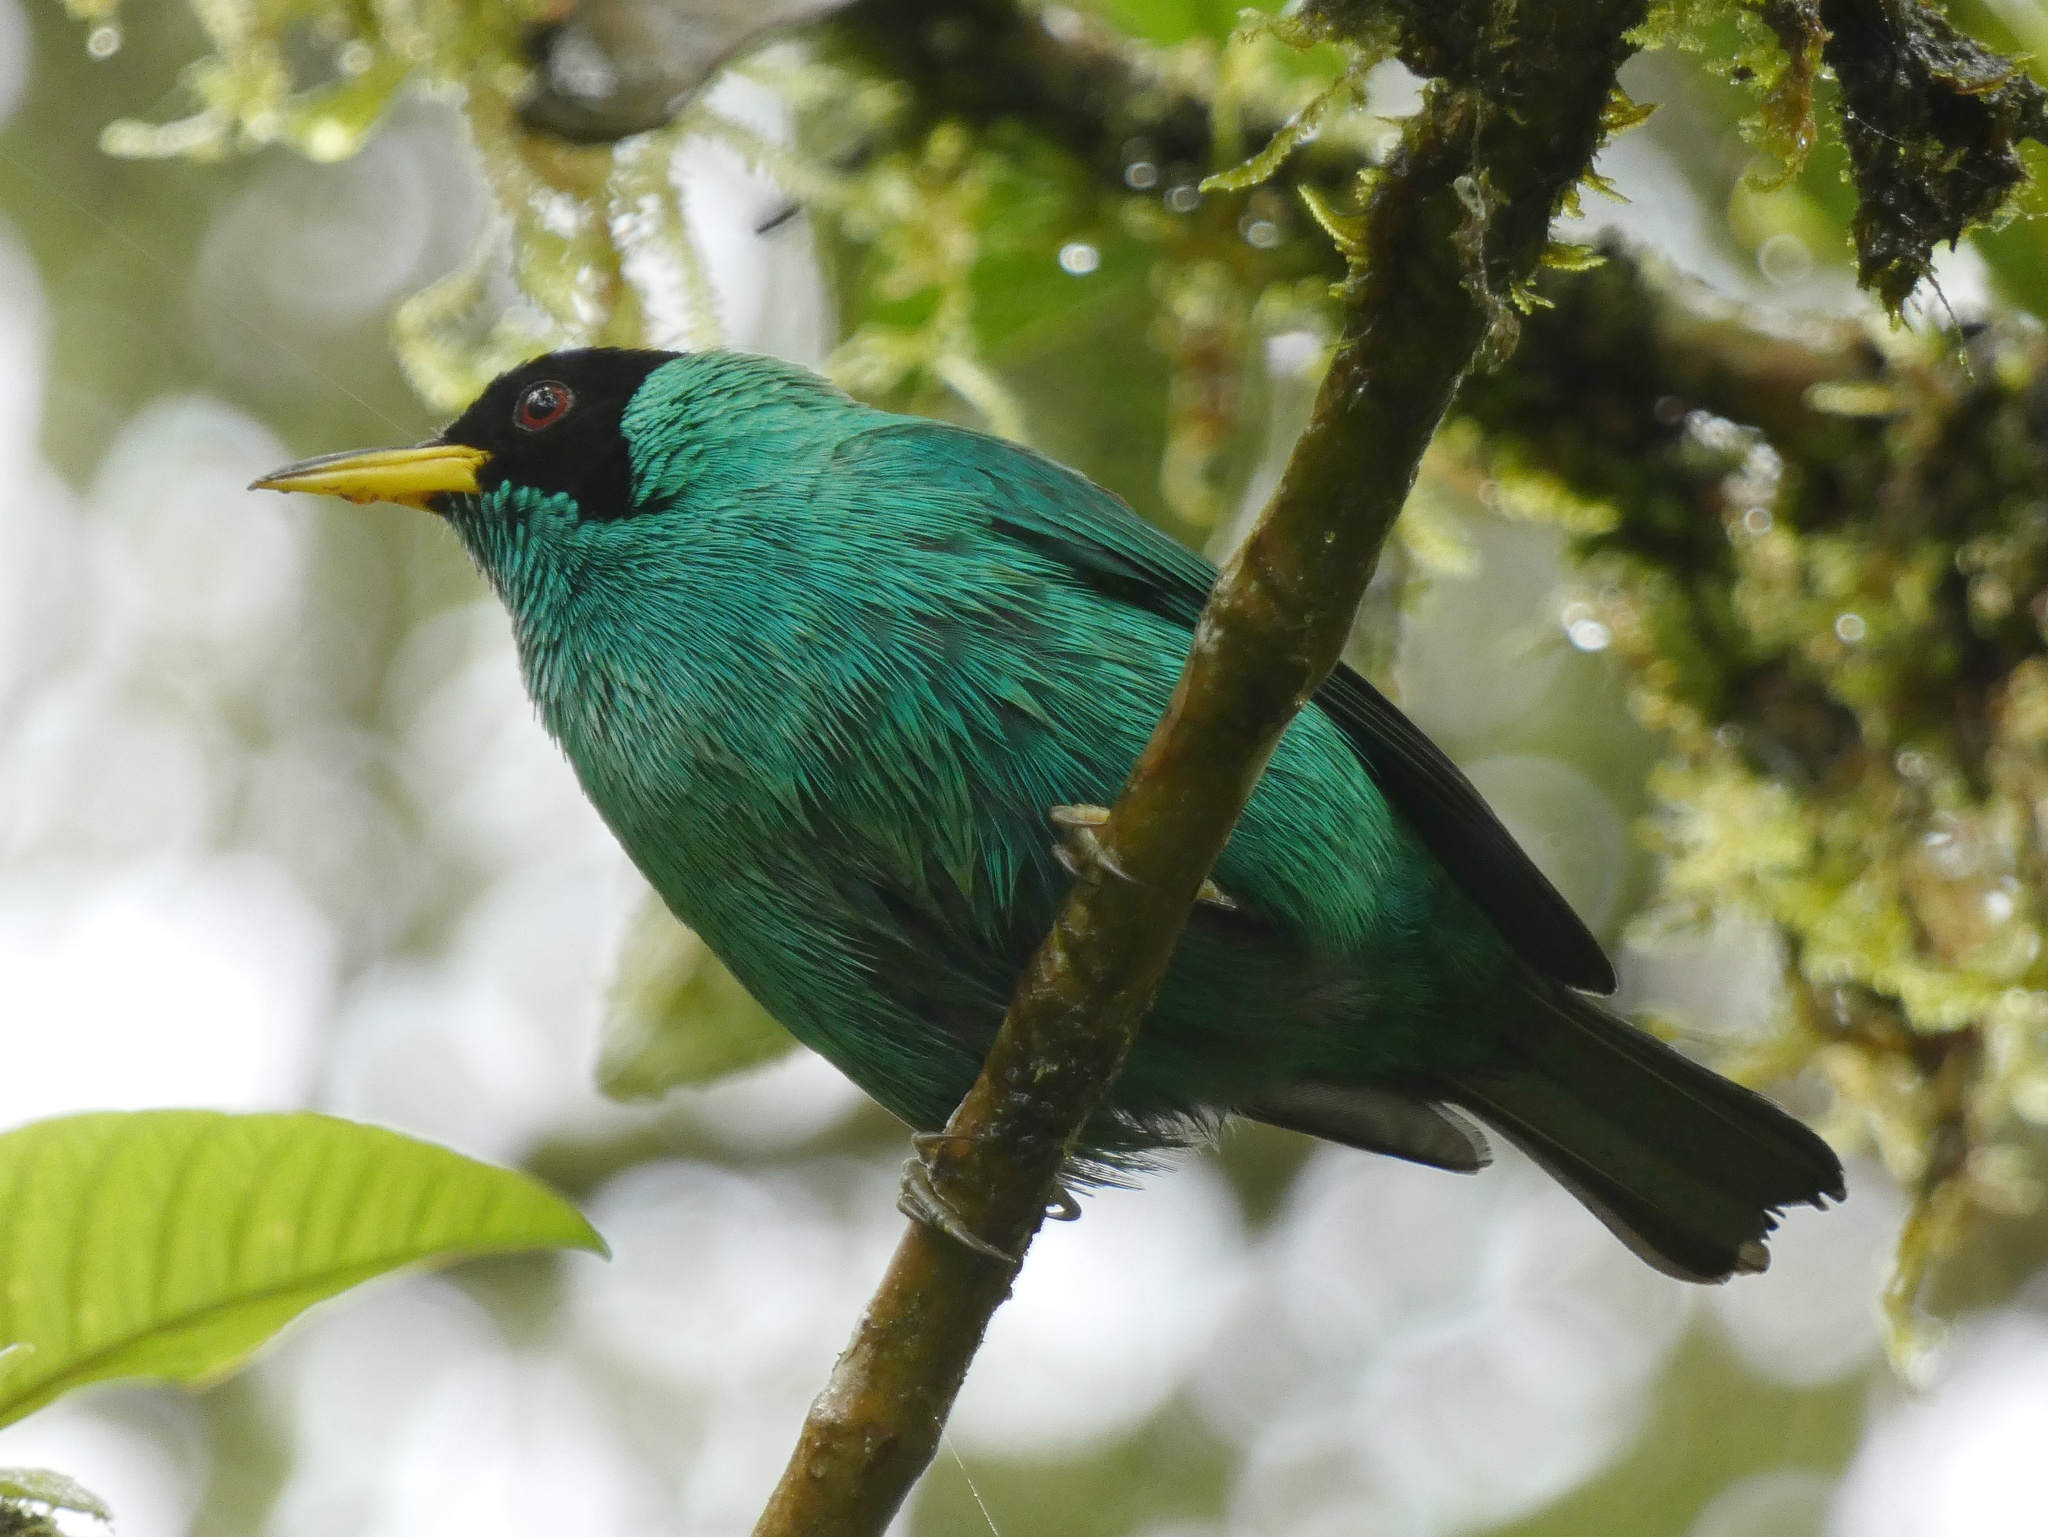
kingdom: Animalia
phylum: Chordata
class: Aves
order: Passeriformes
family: Thraupidae
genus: Chlorophanes
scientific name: Chlorophanes spiza
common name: Green honeycreeper
